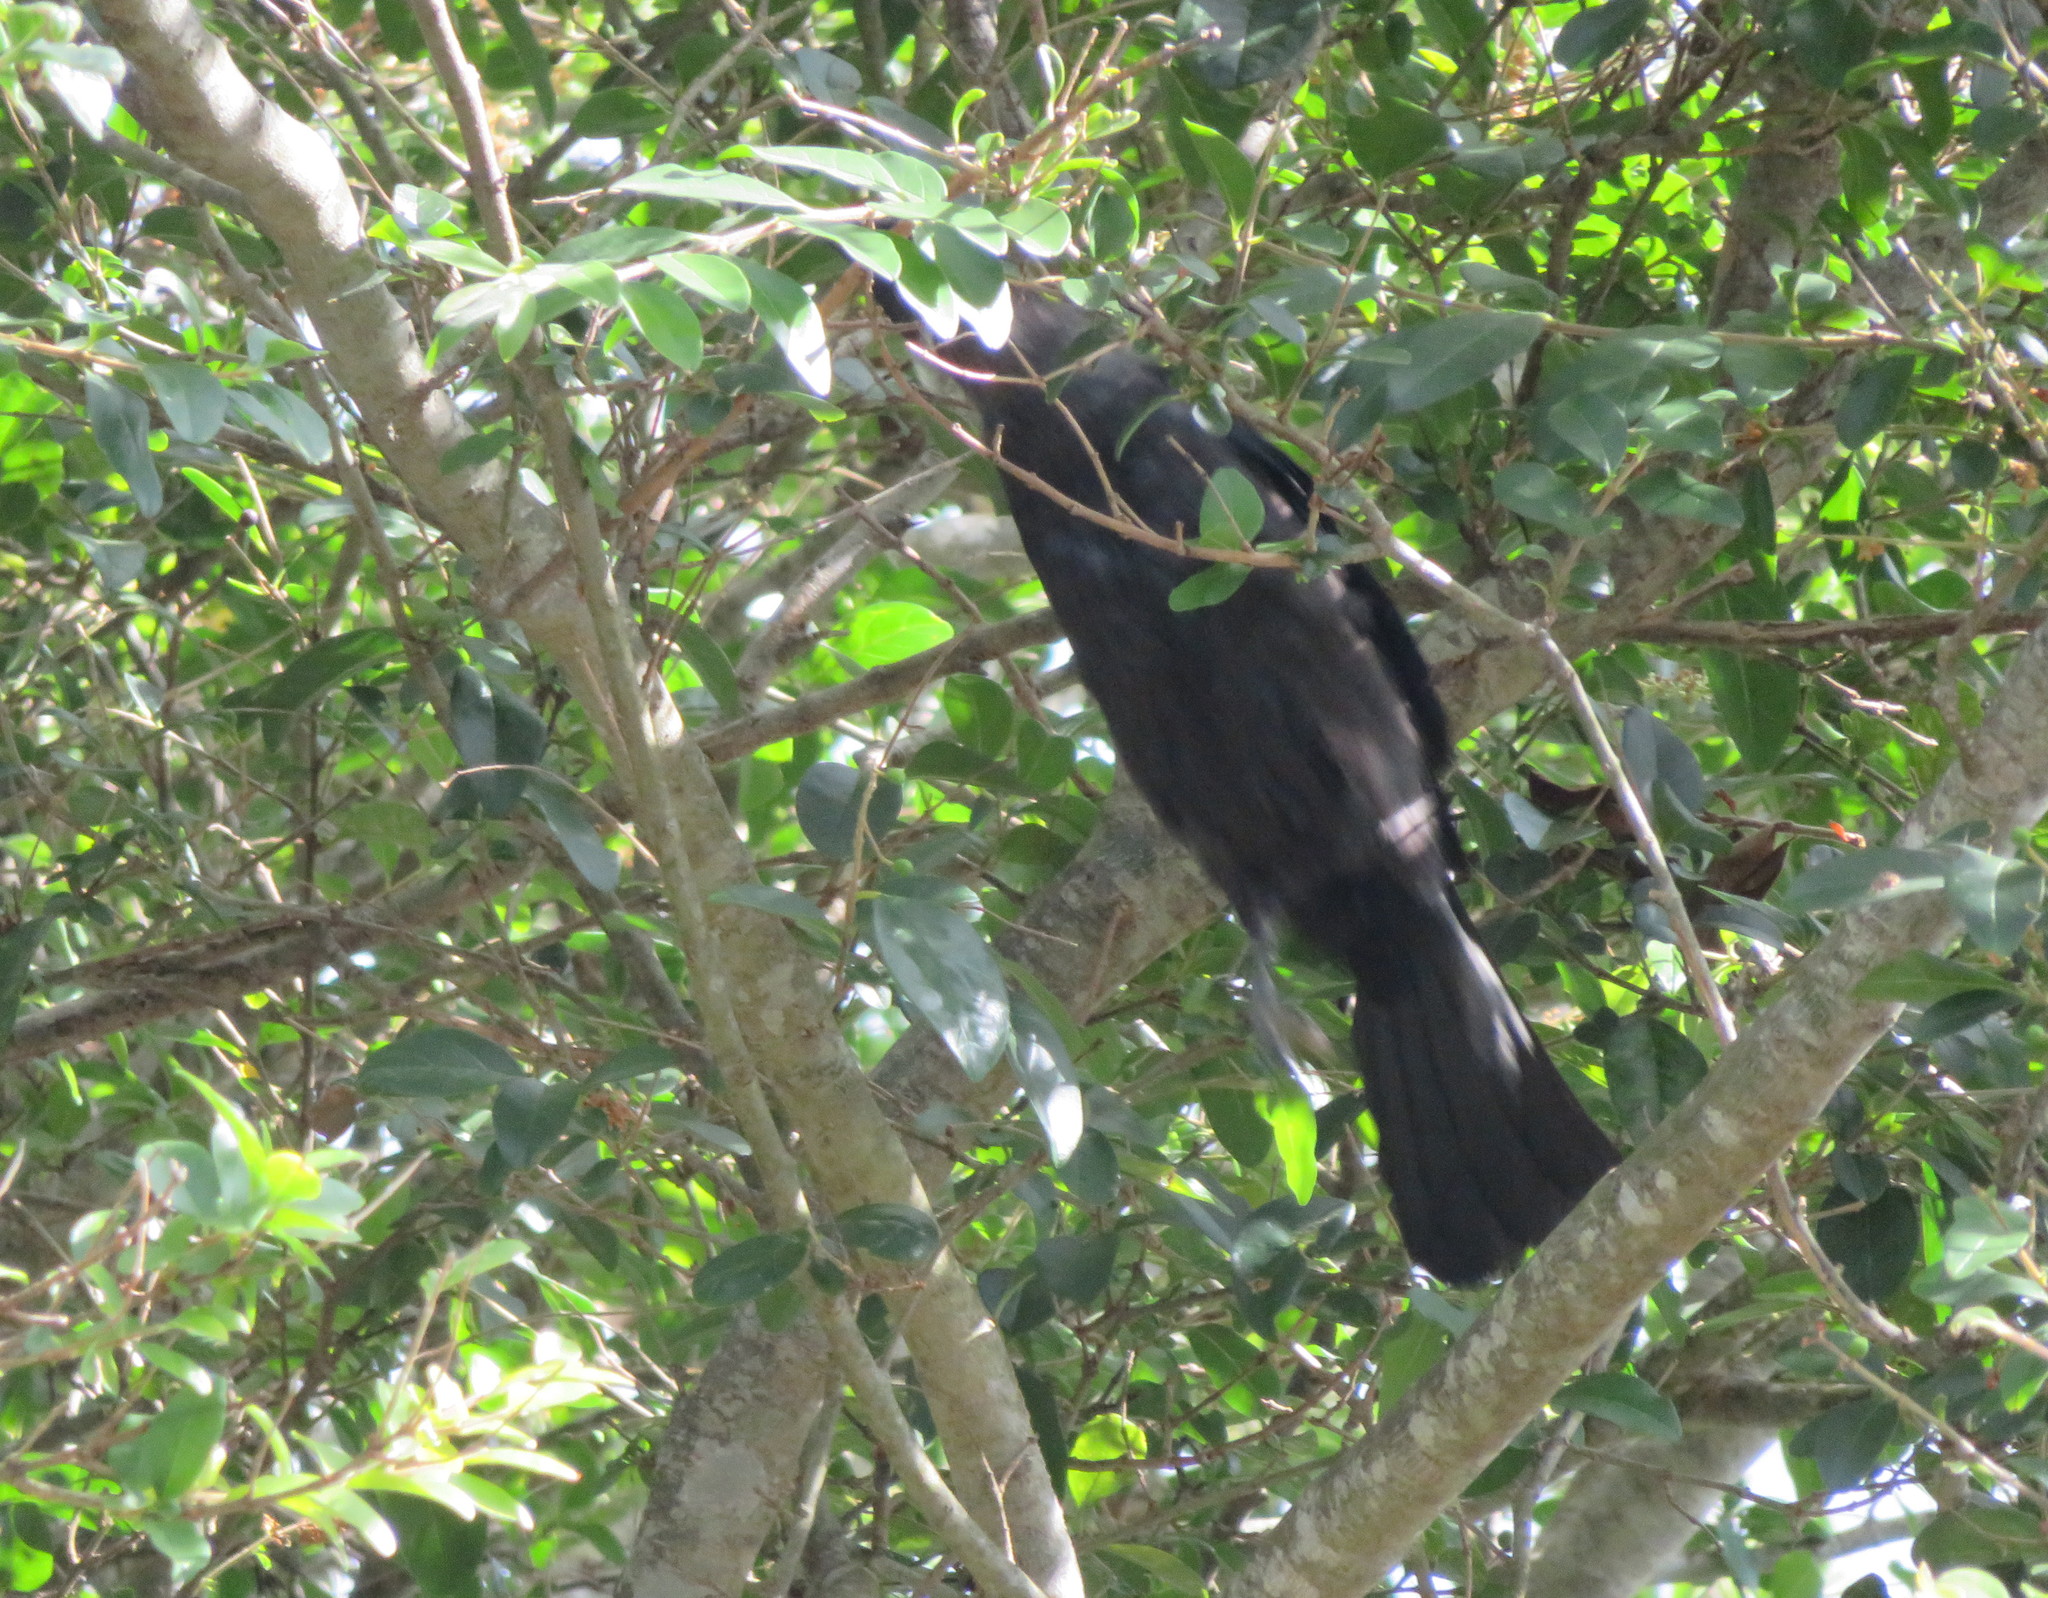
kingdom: Animalia
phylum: Chordata
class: Aves
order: Passeriformes
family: Meliphagidae
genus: Prosthemadera
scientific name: Prosthemadera novaeseelandiae
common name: Tui
